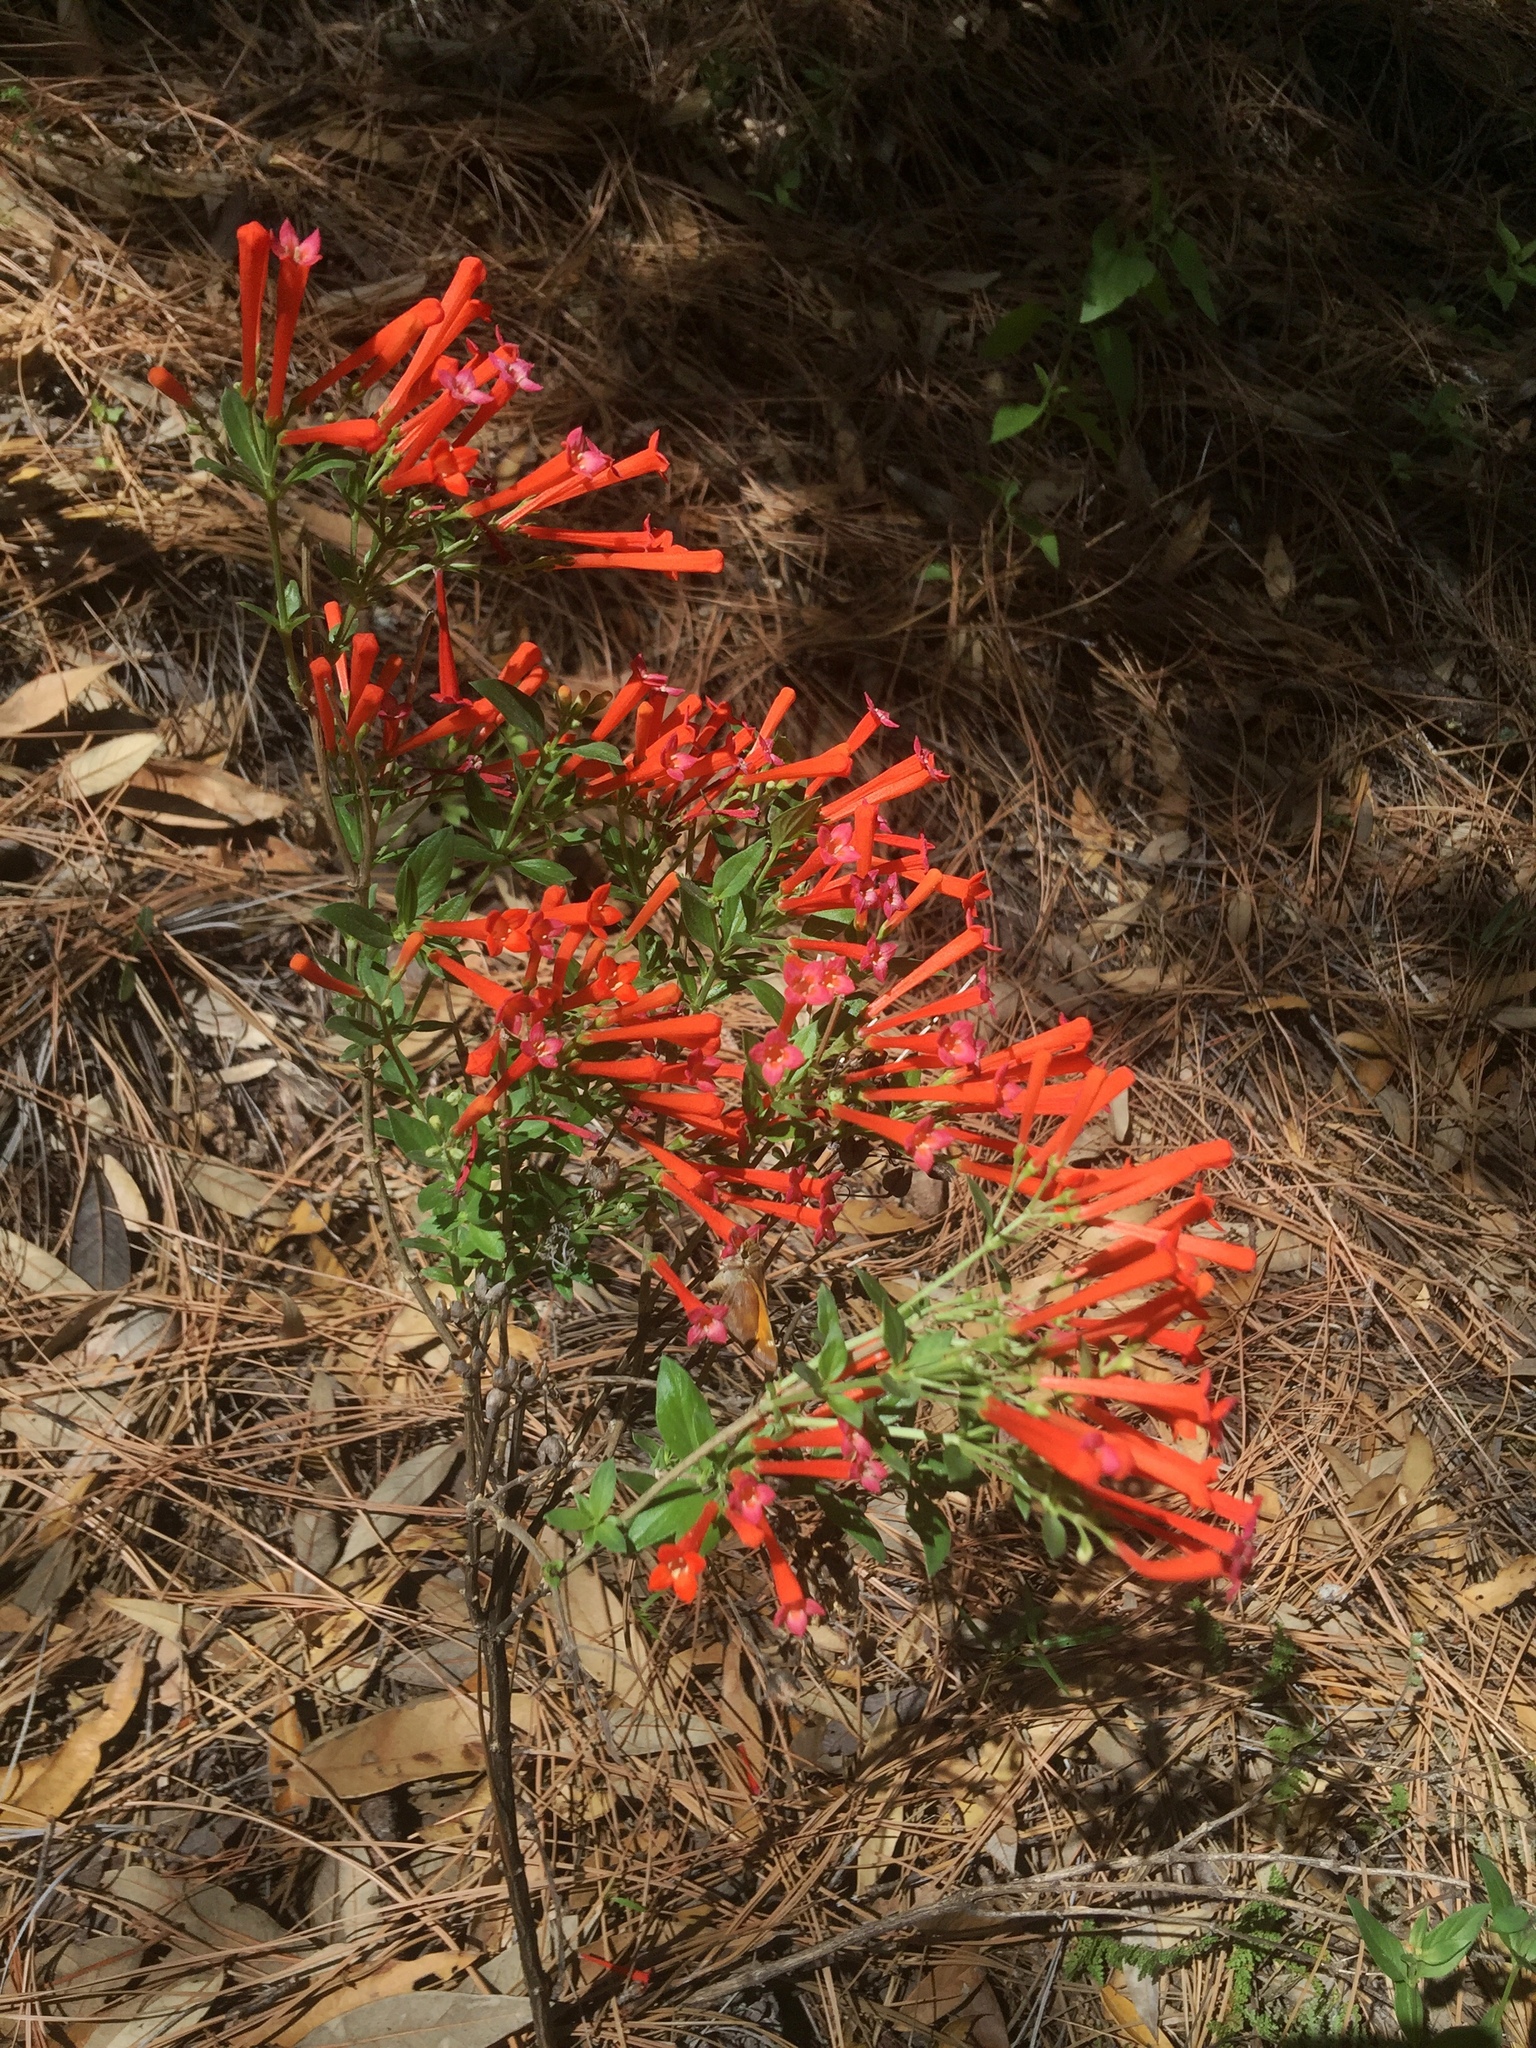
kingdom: Plantae
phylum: Tracheophyta
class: Magnoliopsida
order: Gentianales
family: Rubiaceae
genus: Bouvardia
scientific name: Bouvardia ternifolia
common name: Scarlet bouvardia
